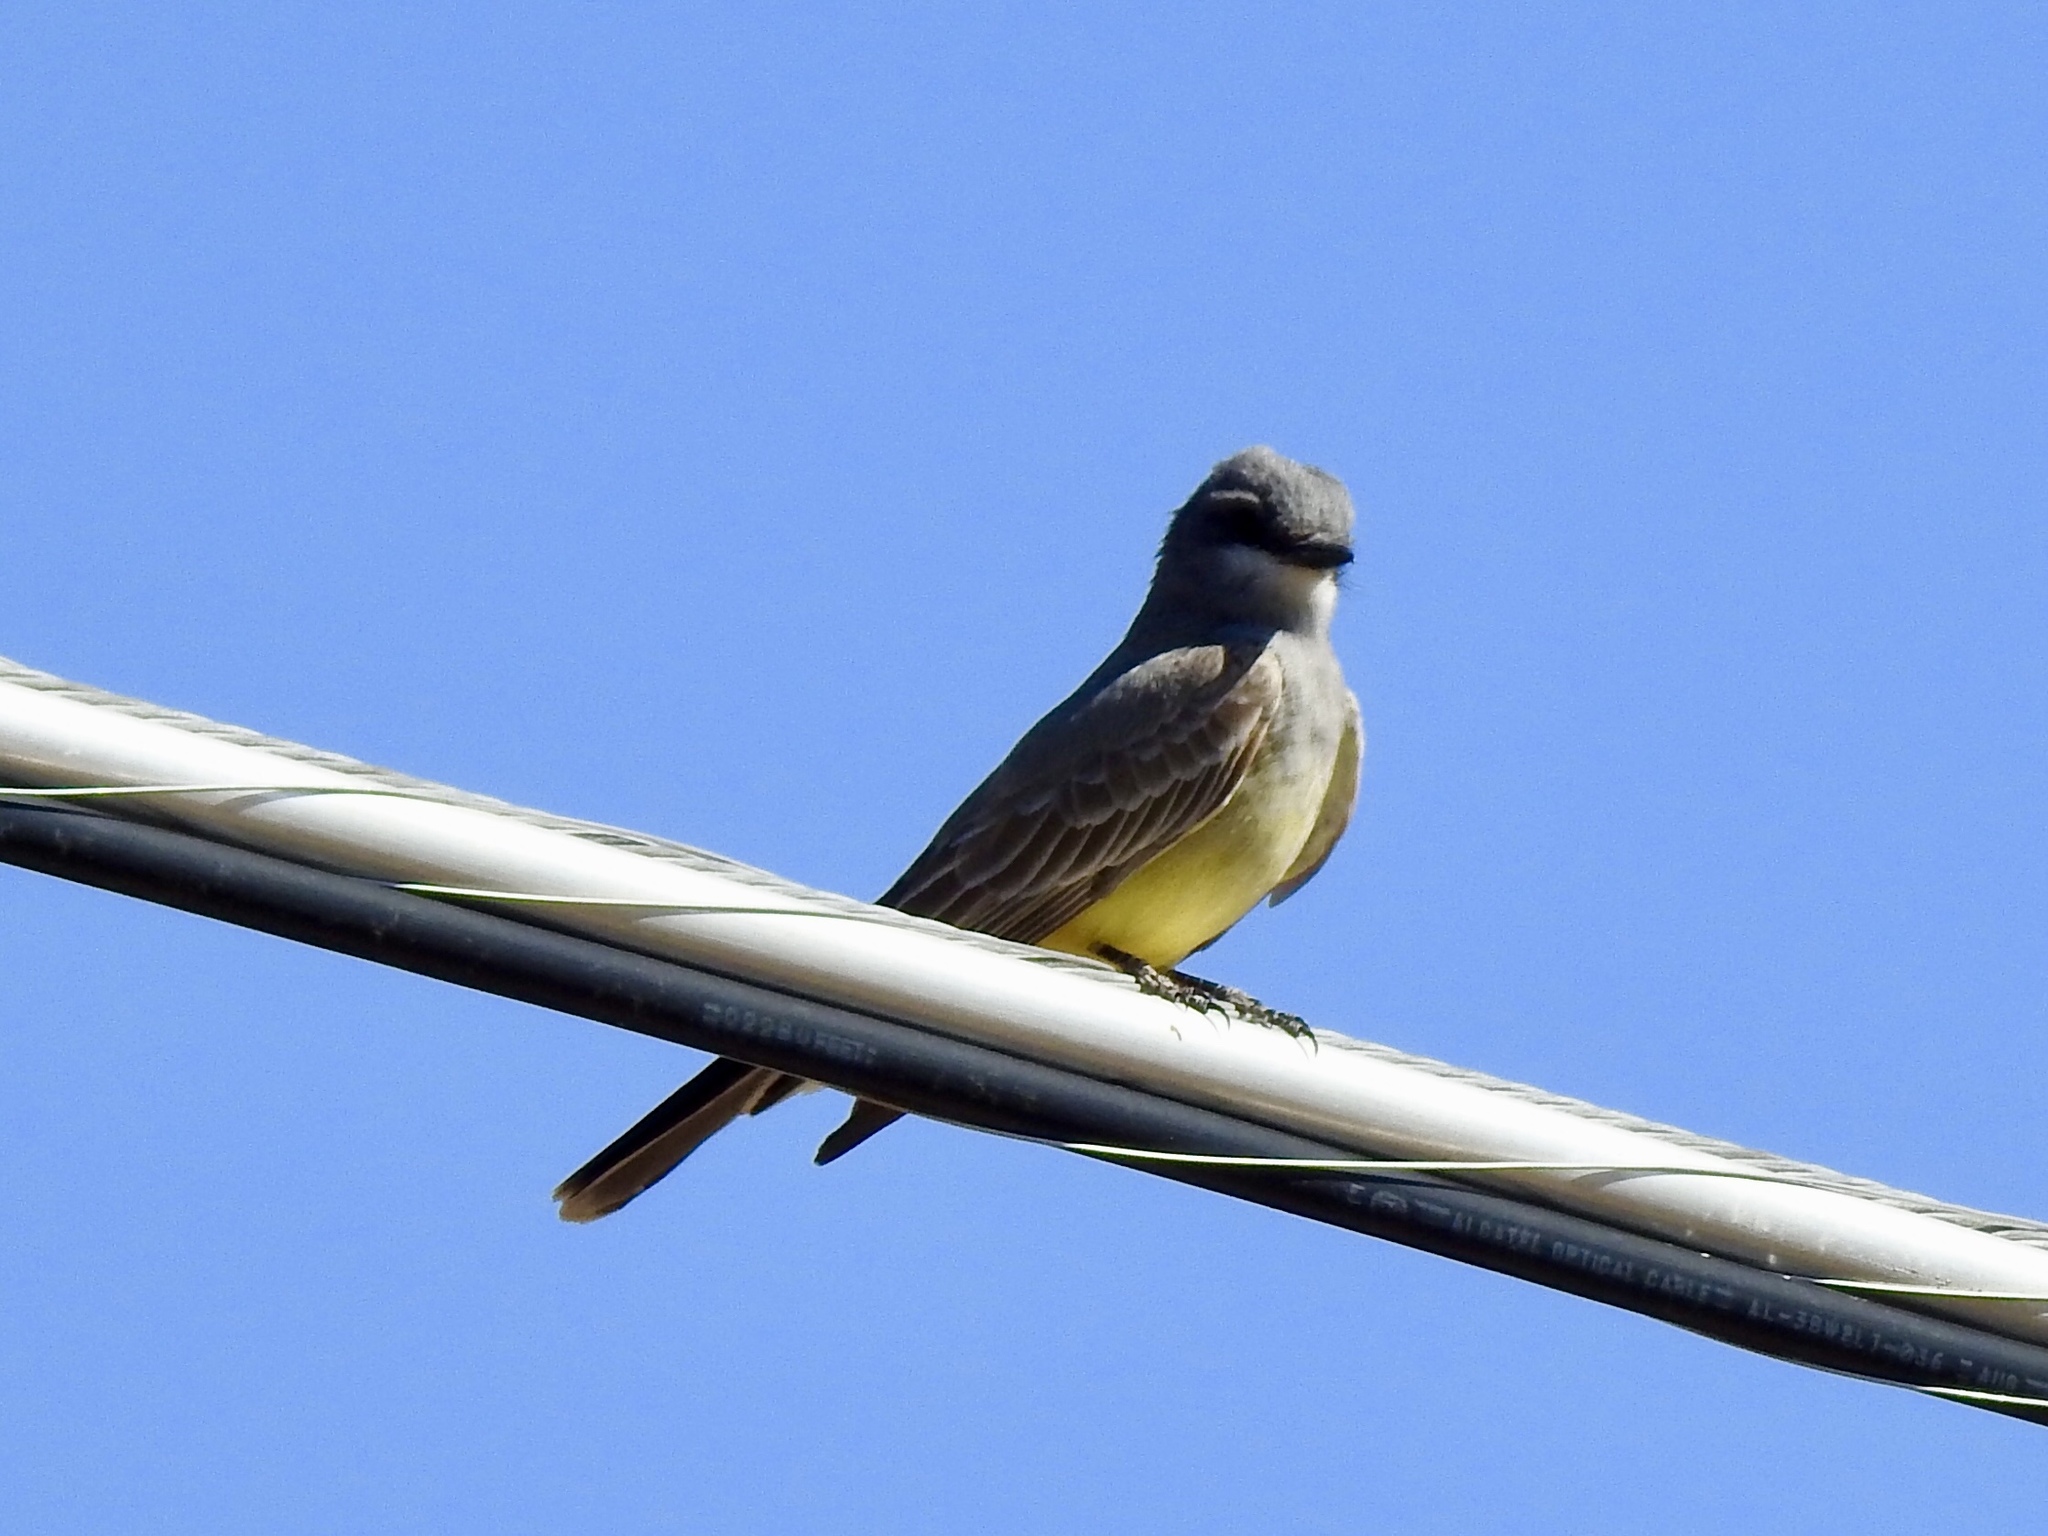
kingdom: Animalia
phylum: Chordata
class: Aves
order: Passeriformes
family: Tyrannidae
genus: Tyrannus
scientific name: Tyrannus vociferans
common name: Cassin's kingbird
